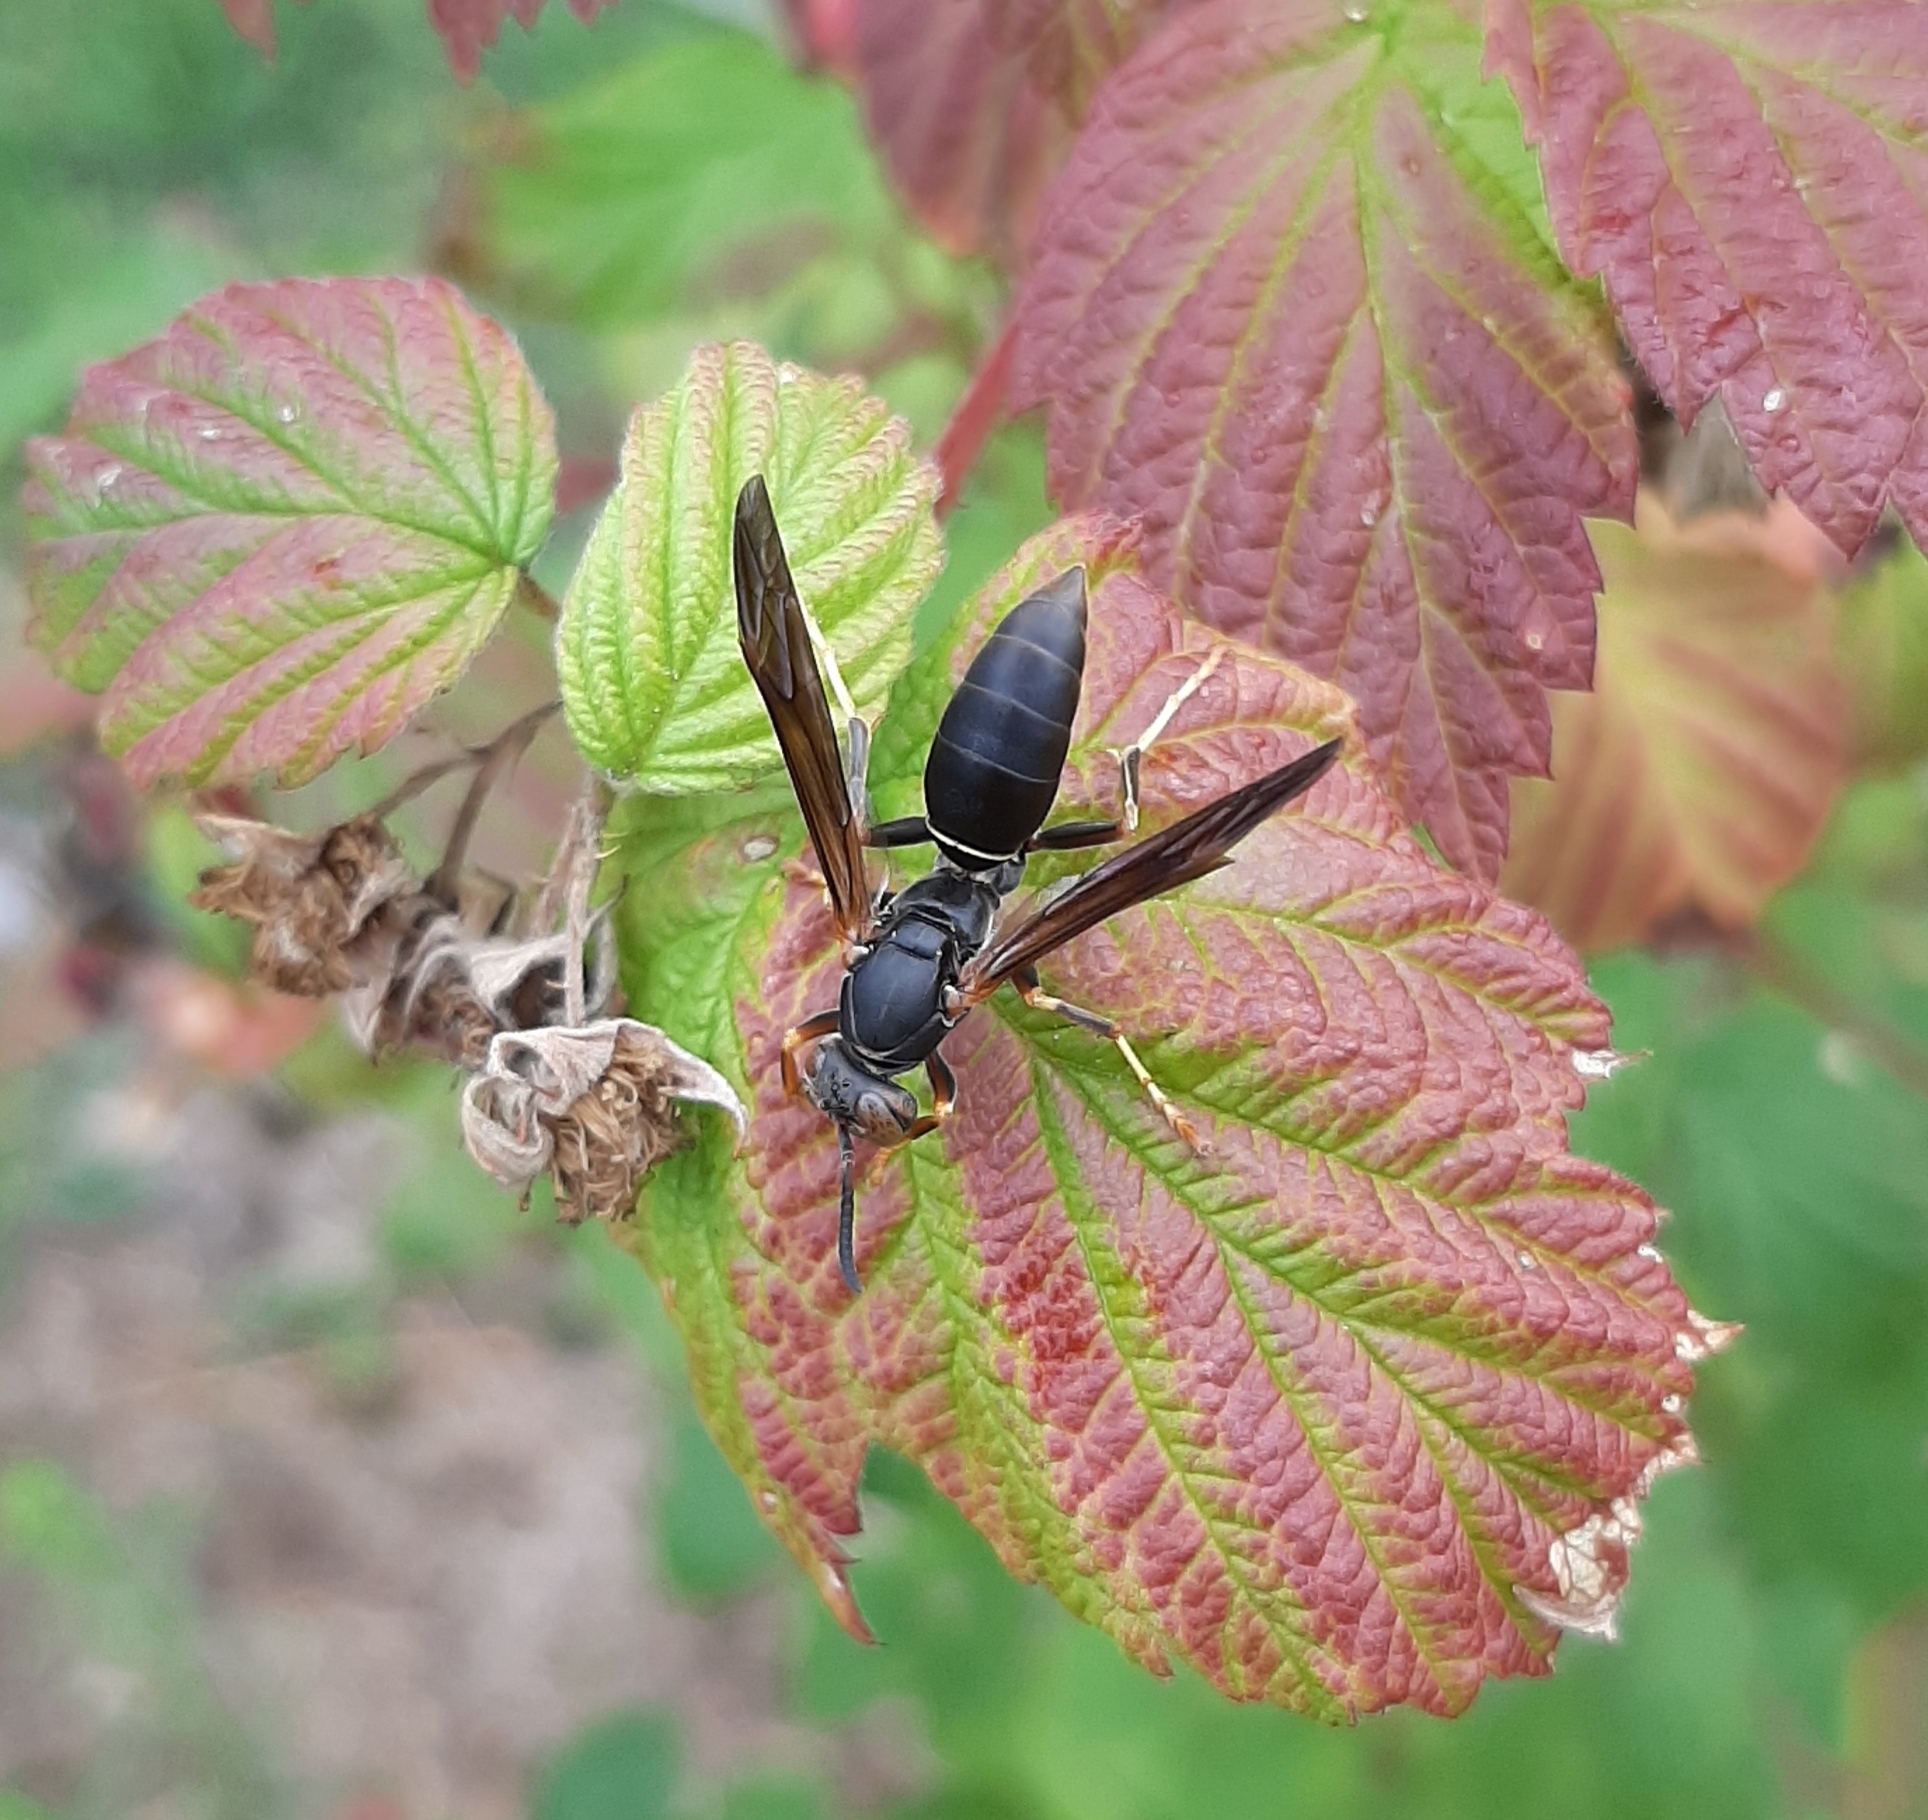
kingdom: Animalia
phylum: Arthropoda
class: Insecta
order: Hymenoptera
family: Eumenidae
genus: Polistes
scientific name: Polistes fuscatus
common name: Dark paper wasp
